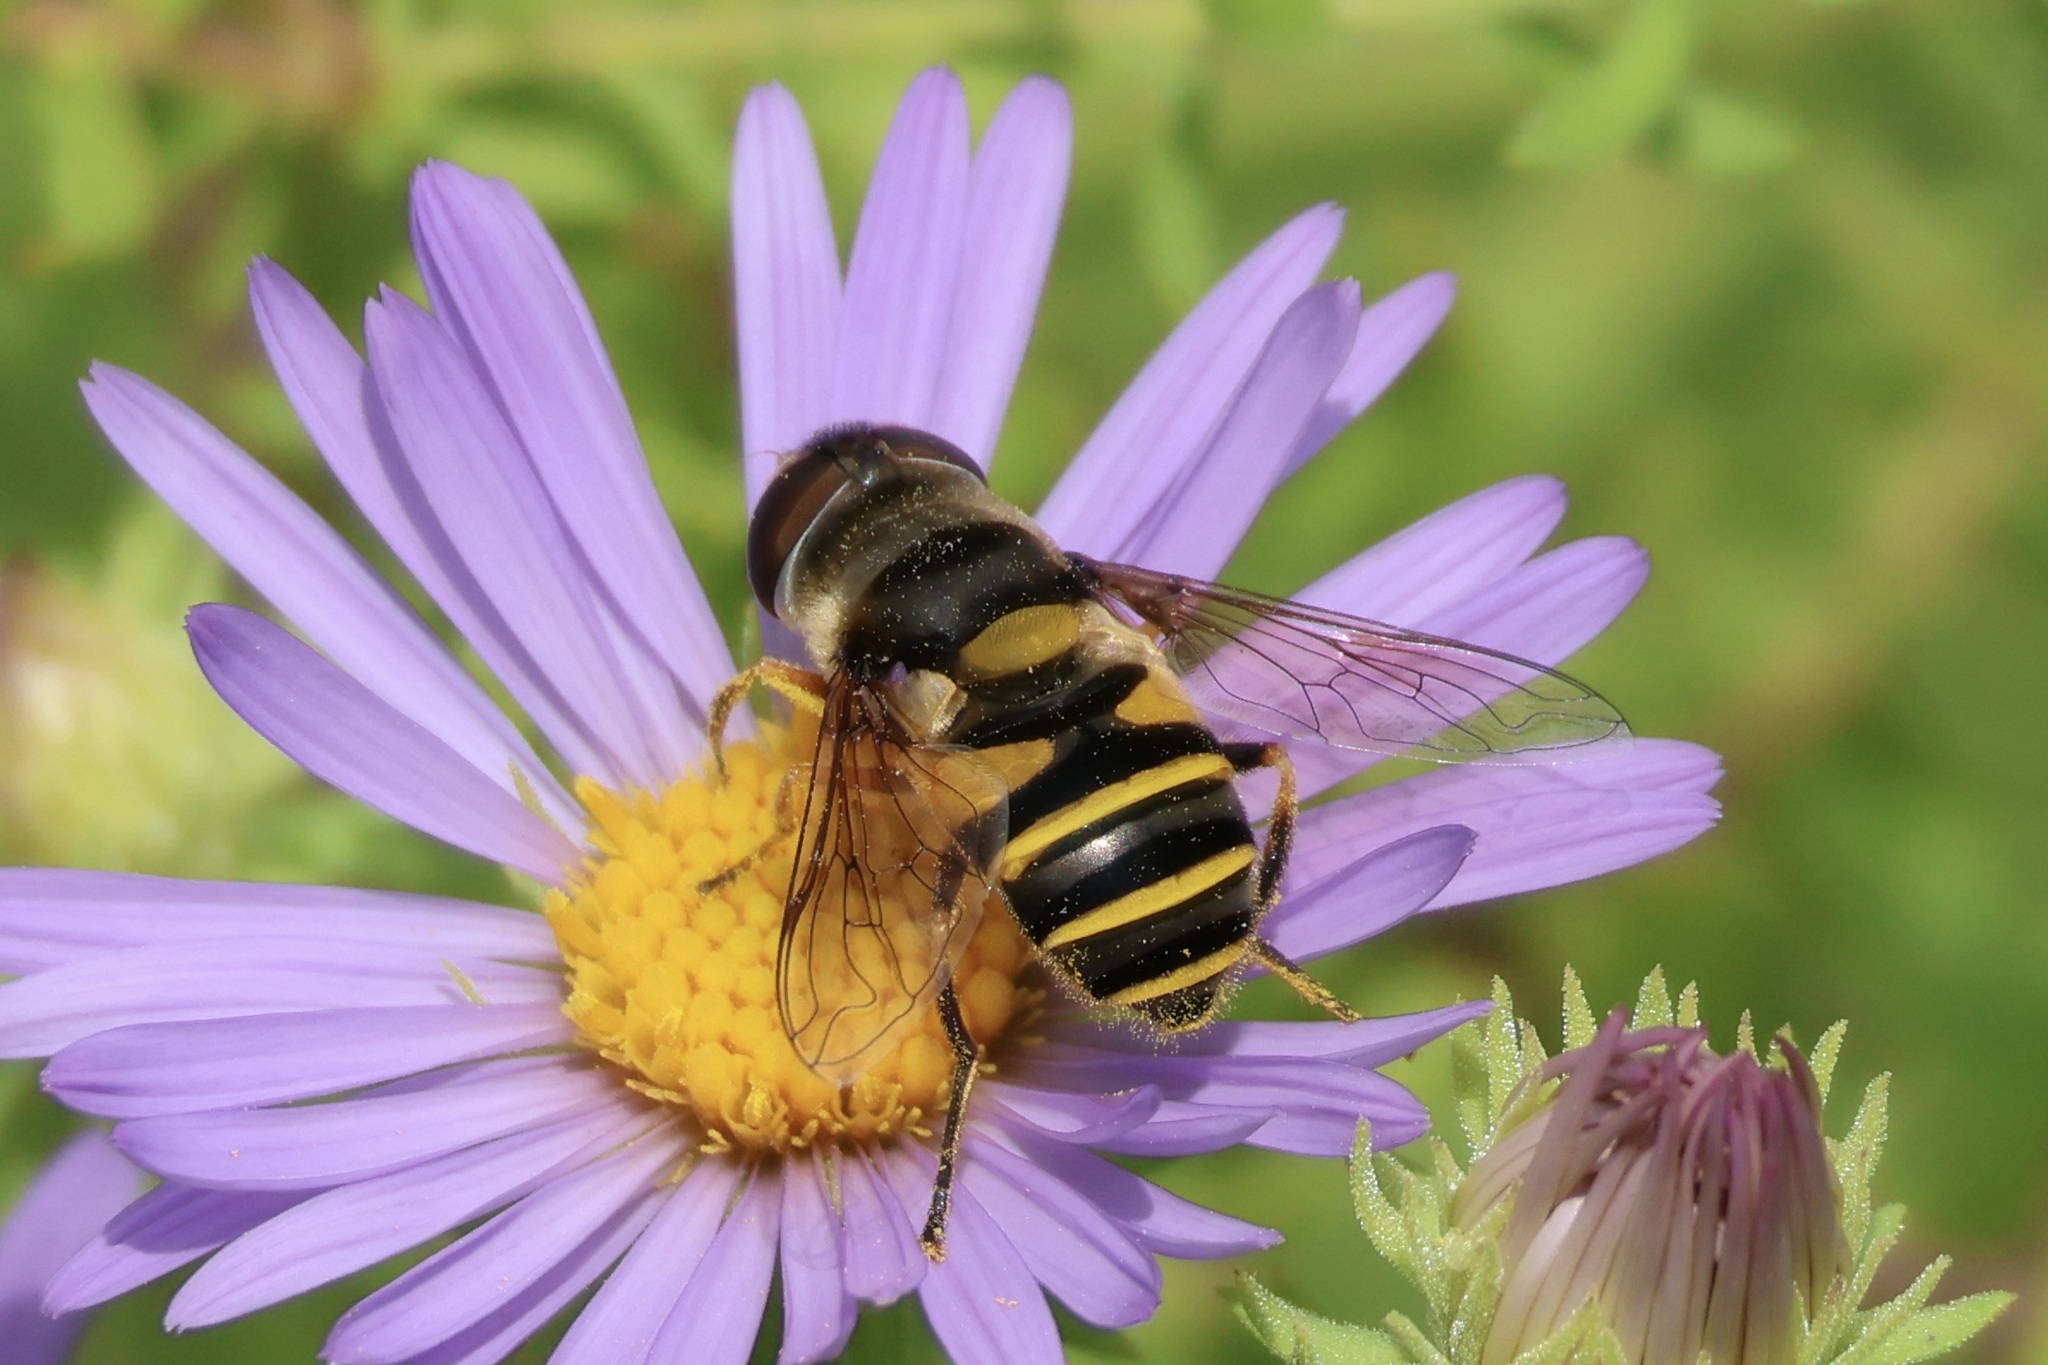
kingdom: Animalia
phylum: Arthropoda
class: Insecta
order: Diptera
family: Syrphidae
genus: Eristalis
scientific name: Eristalis transversa
